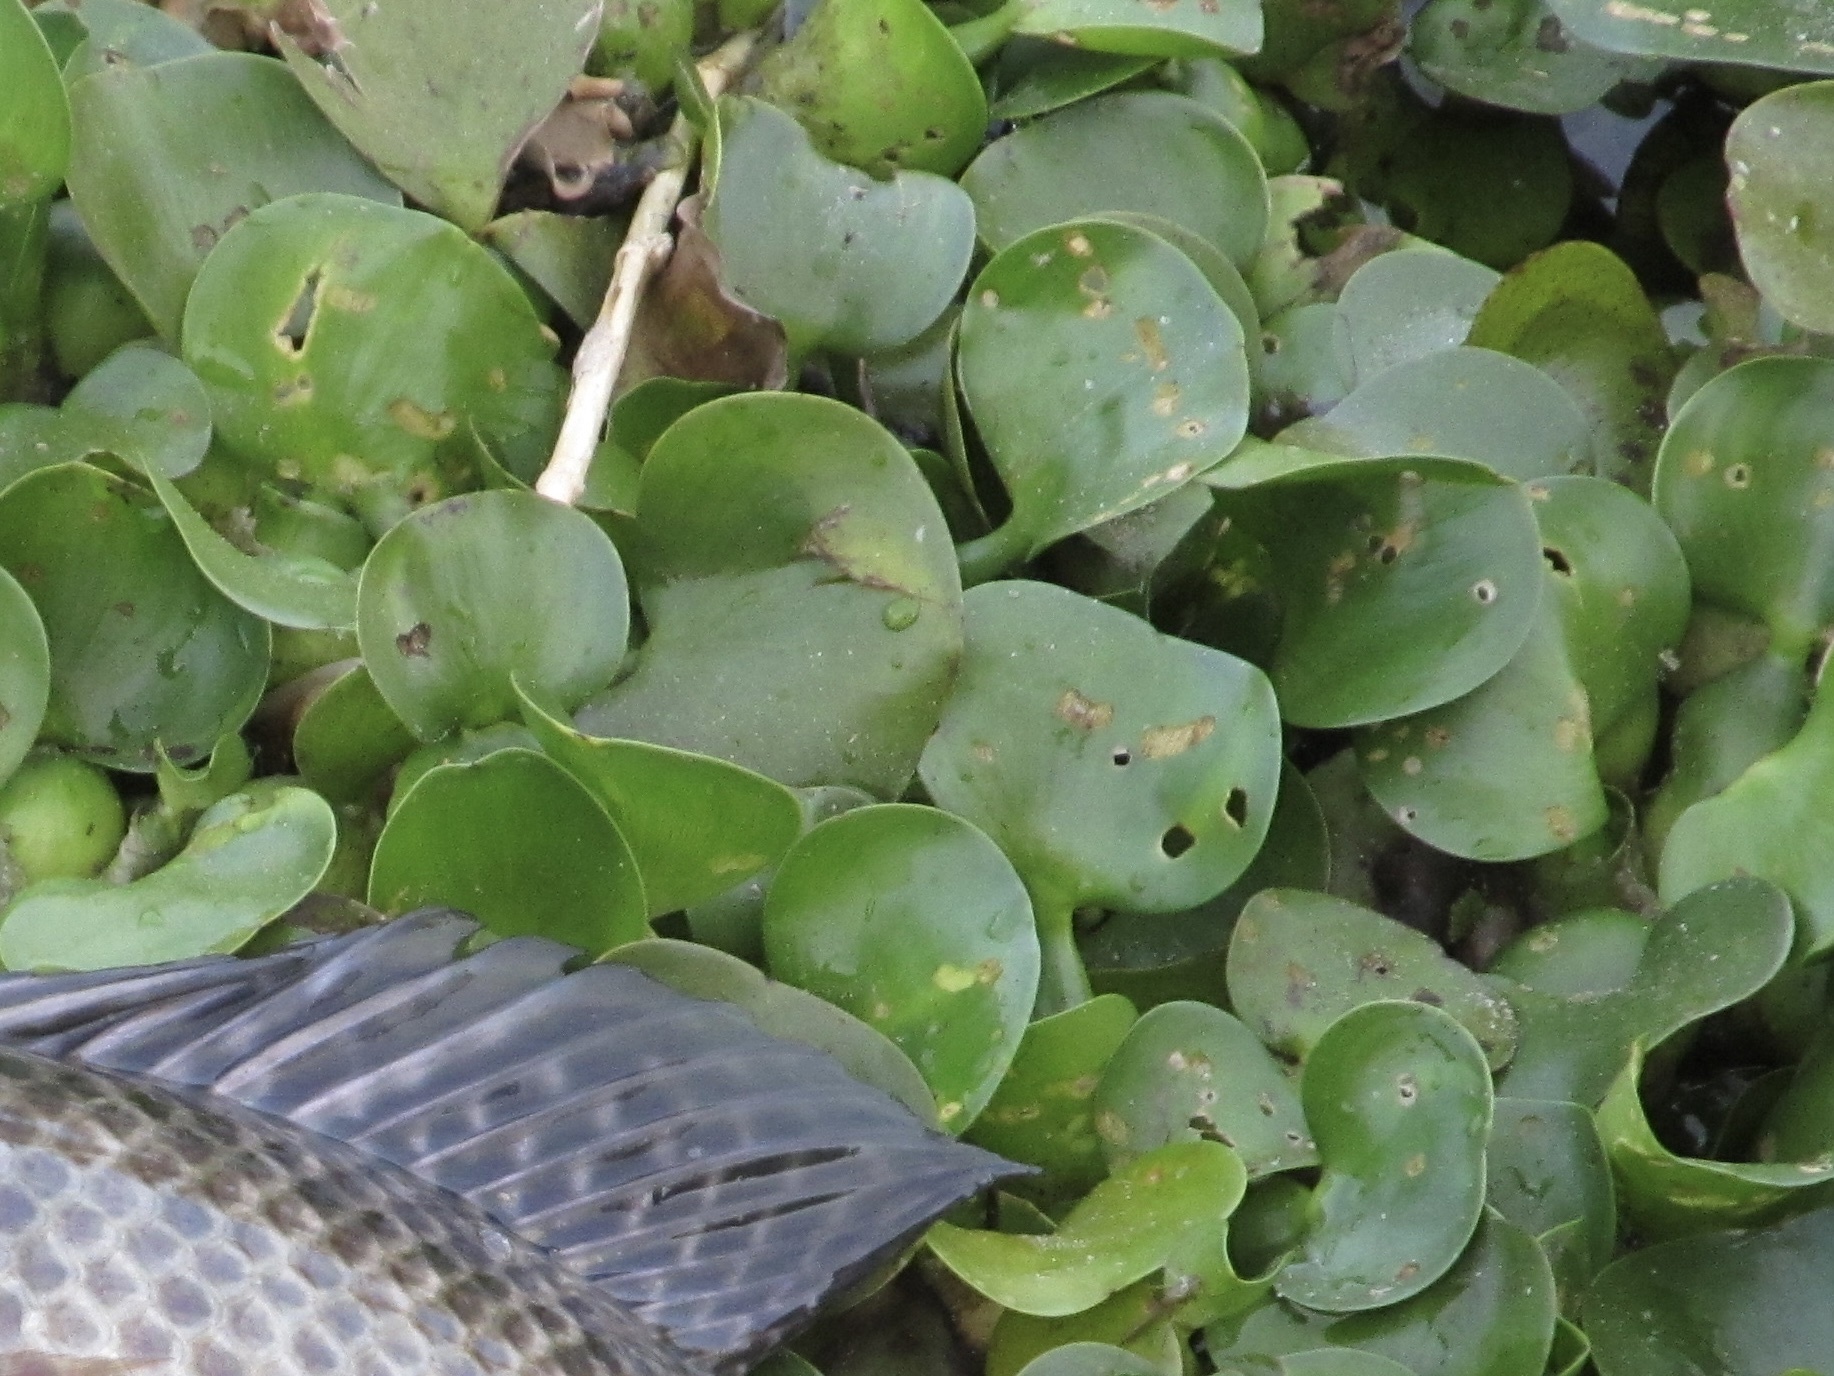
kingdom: Plantae
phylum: Tracheophyta
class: Liliopsida
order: Commelinales
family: Pontederiaceae
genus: Pontederia
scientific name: Pontederia crassipes
